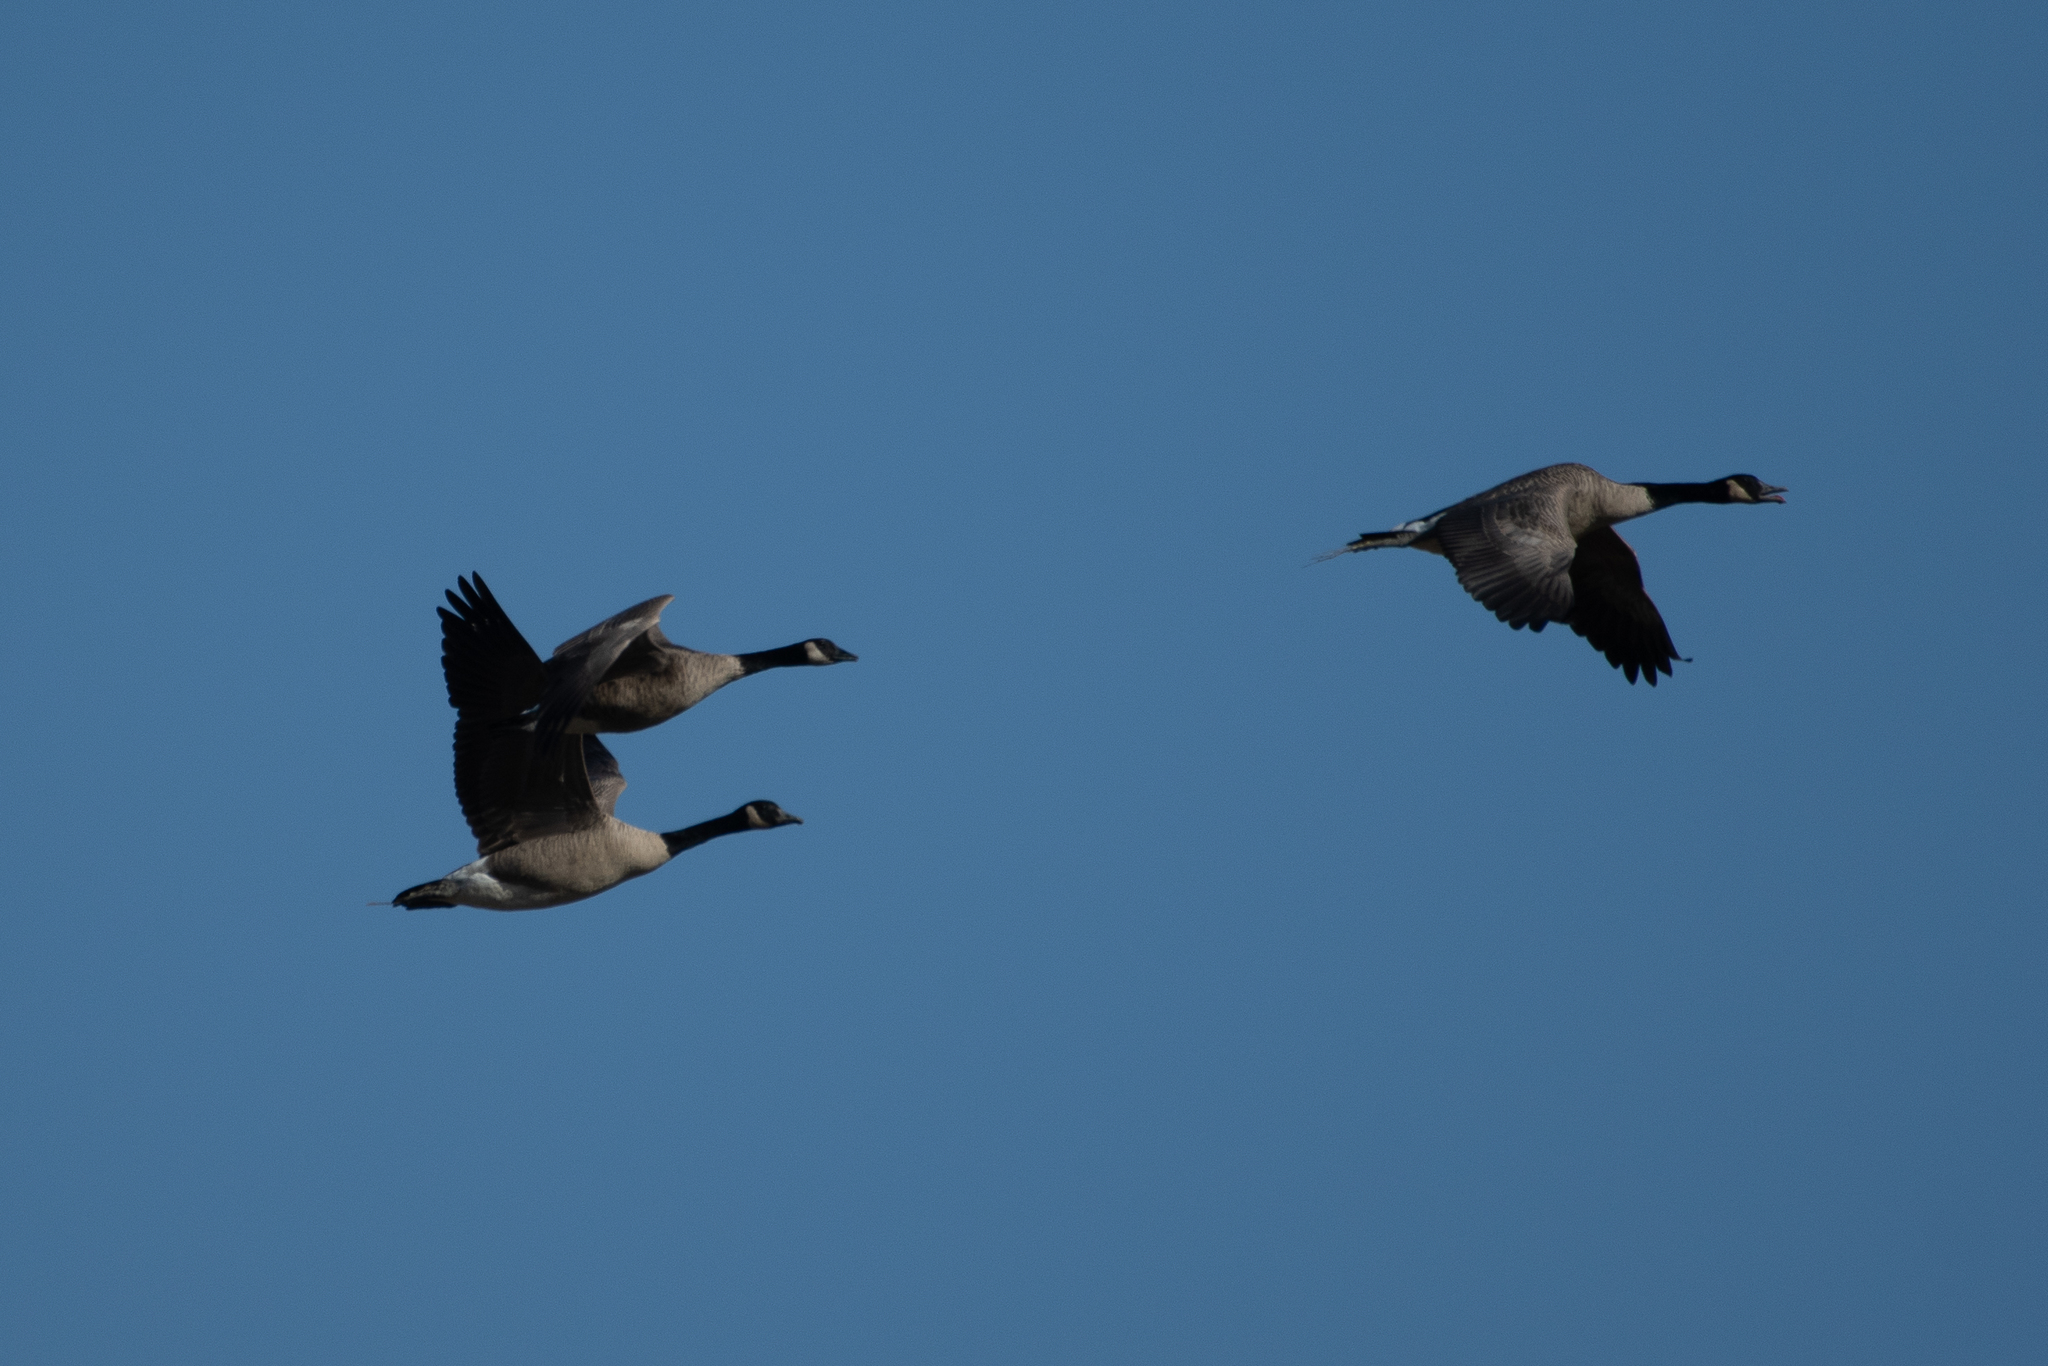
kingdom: Animalia
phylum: Chordata
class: Aves
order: Anseriformes
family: Anatidae
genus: Branta
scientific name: Branta canadensis
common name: Canada goose
